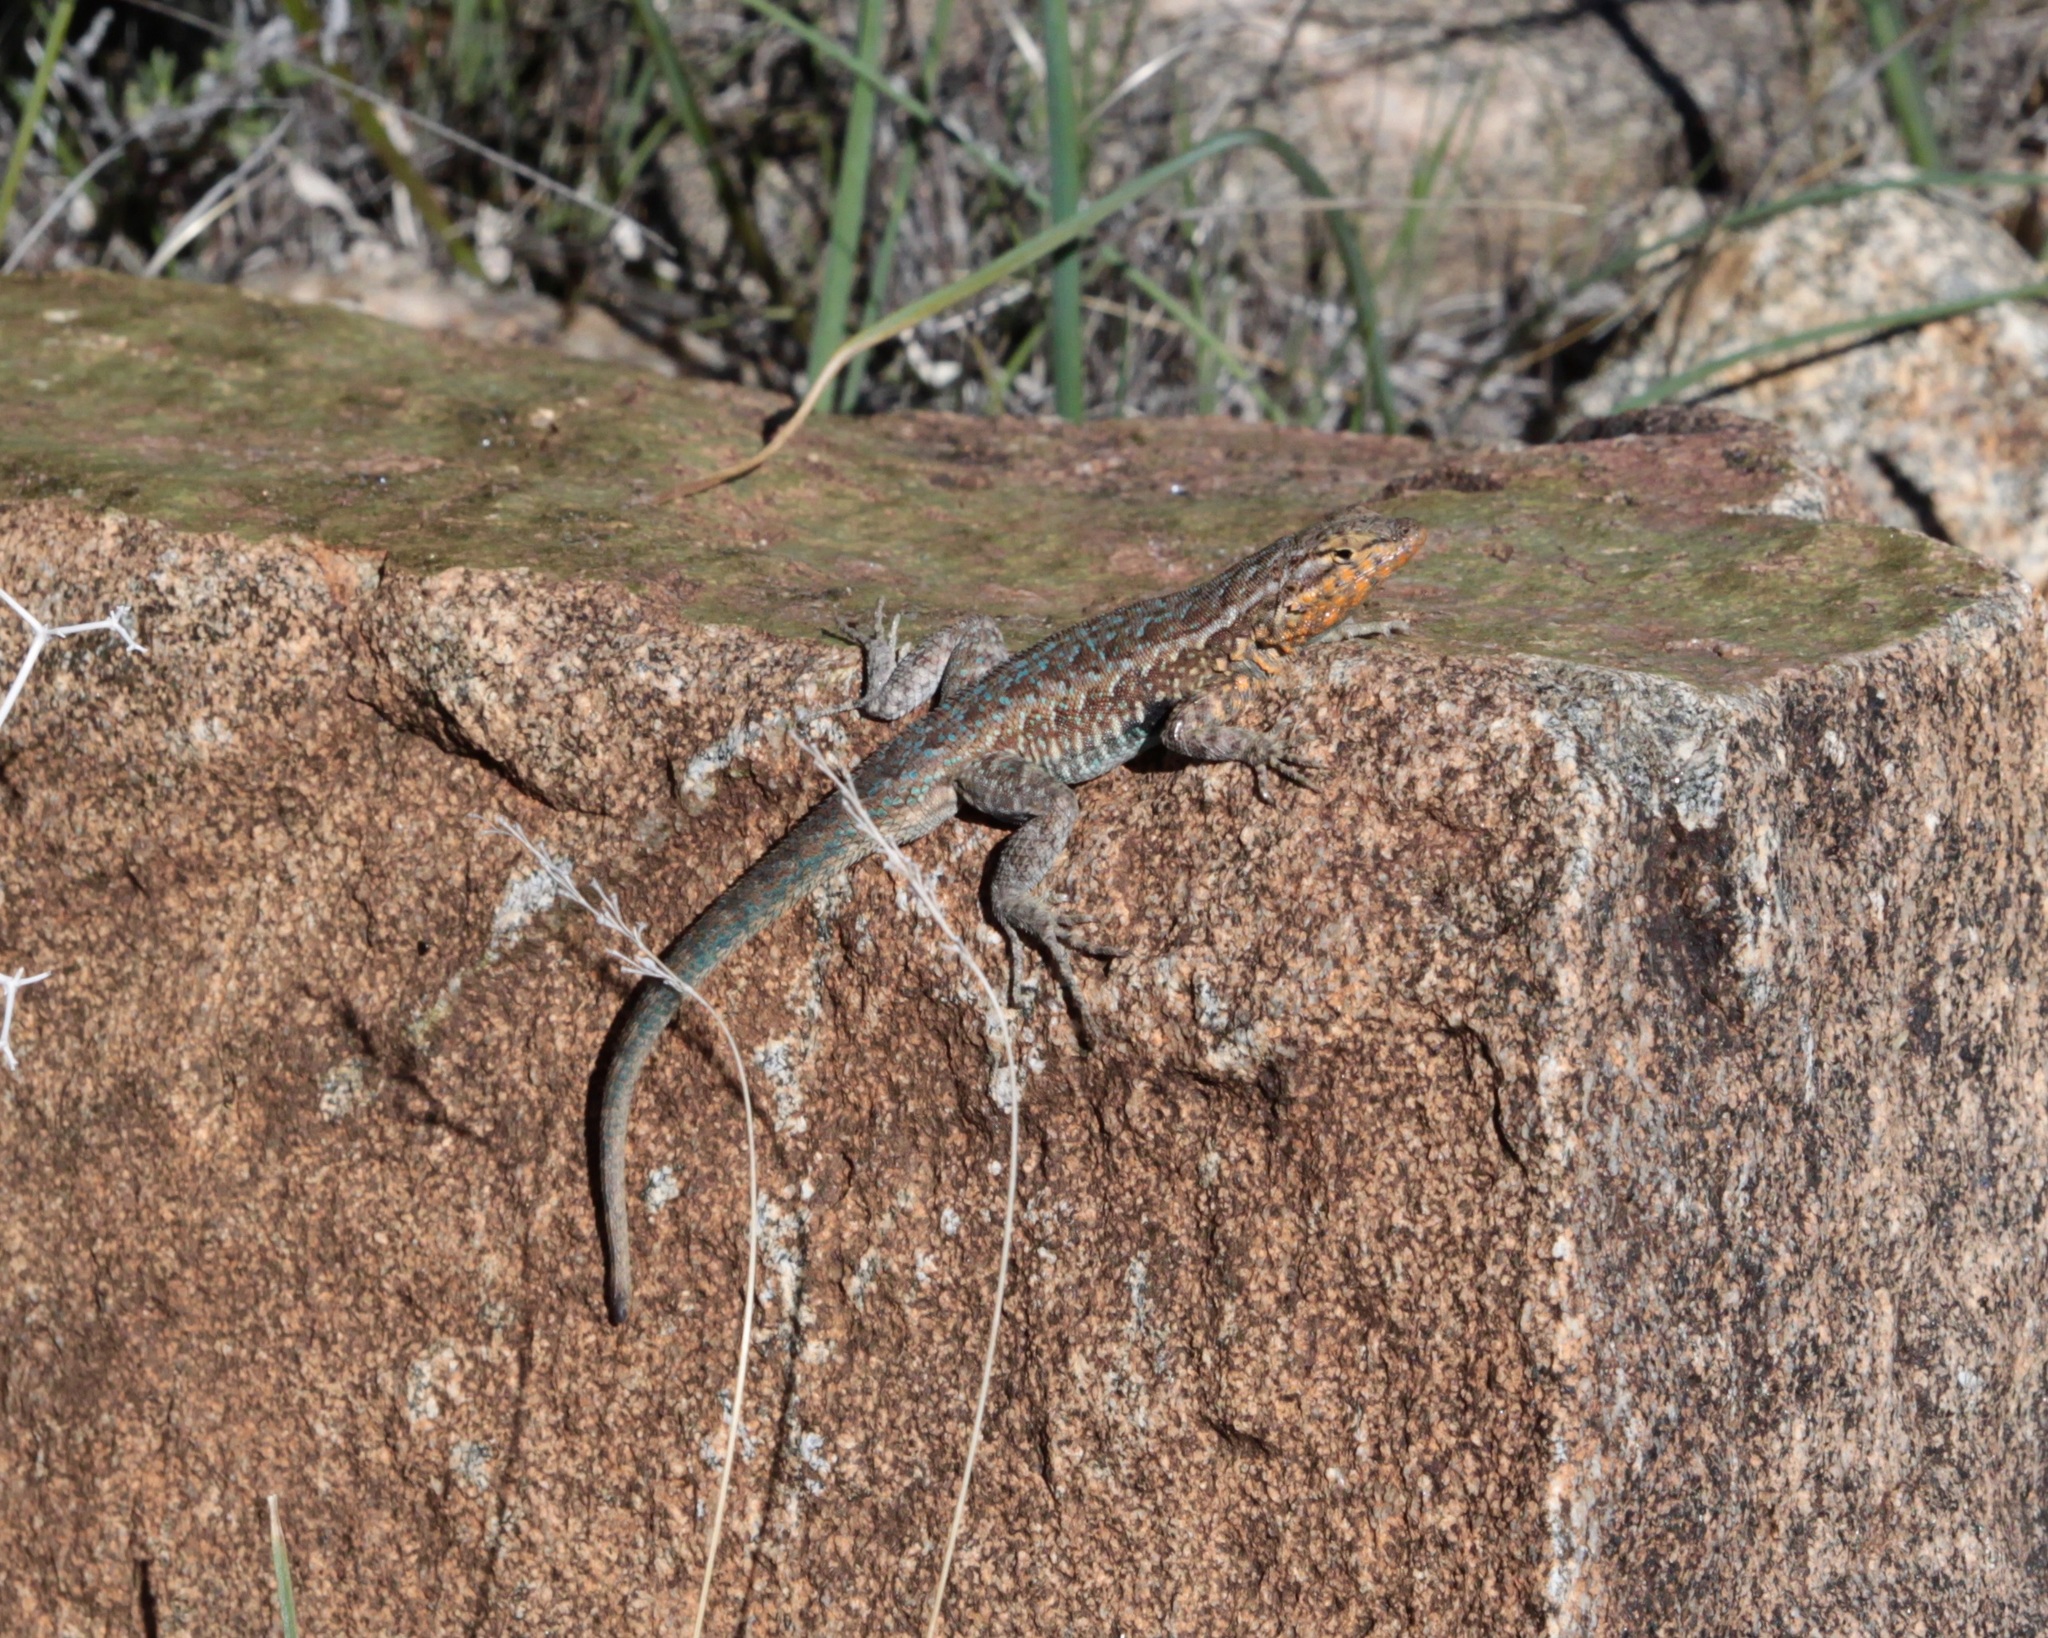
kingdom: Animalia
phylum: Chordata
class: Squamata
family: Phrynosomatidae
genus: Uta
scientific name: Uta stansburiana
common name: Side-blotched lizard
